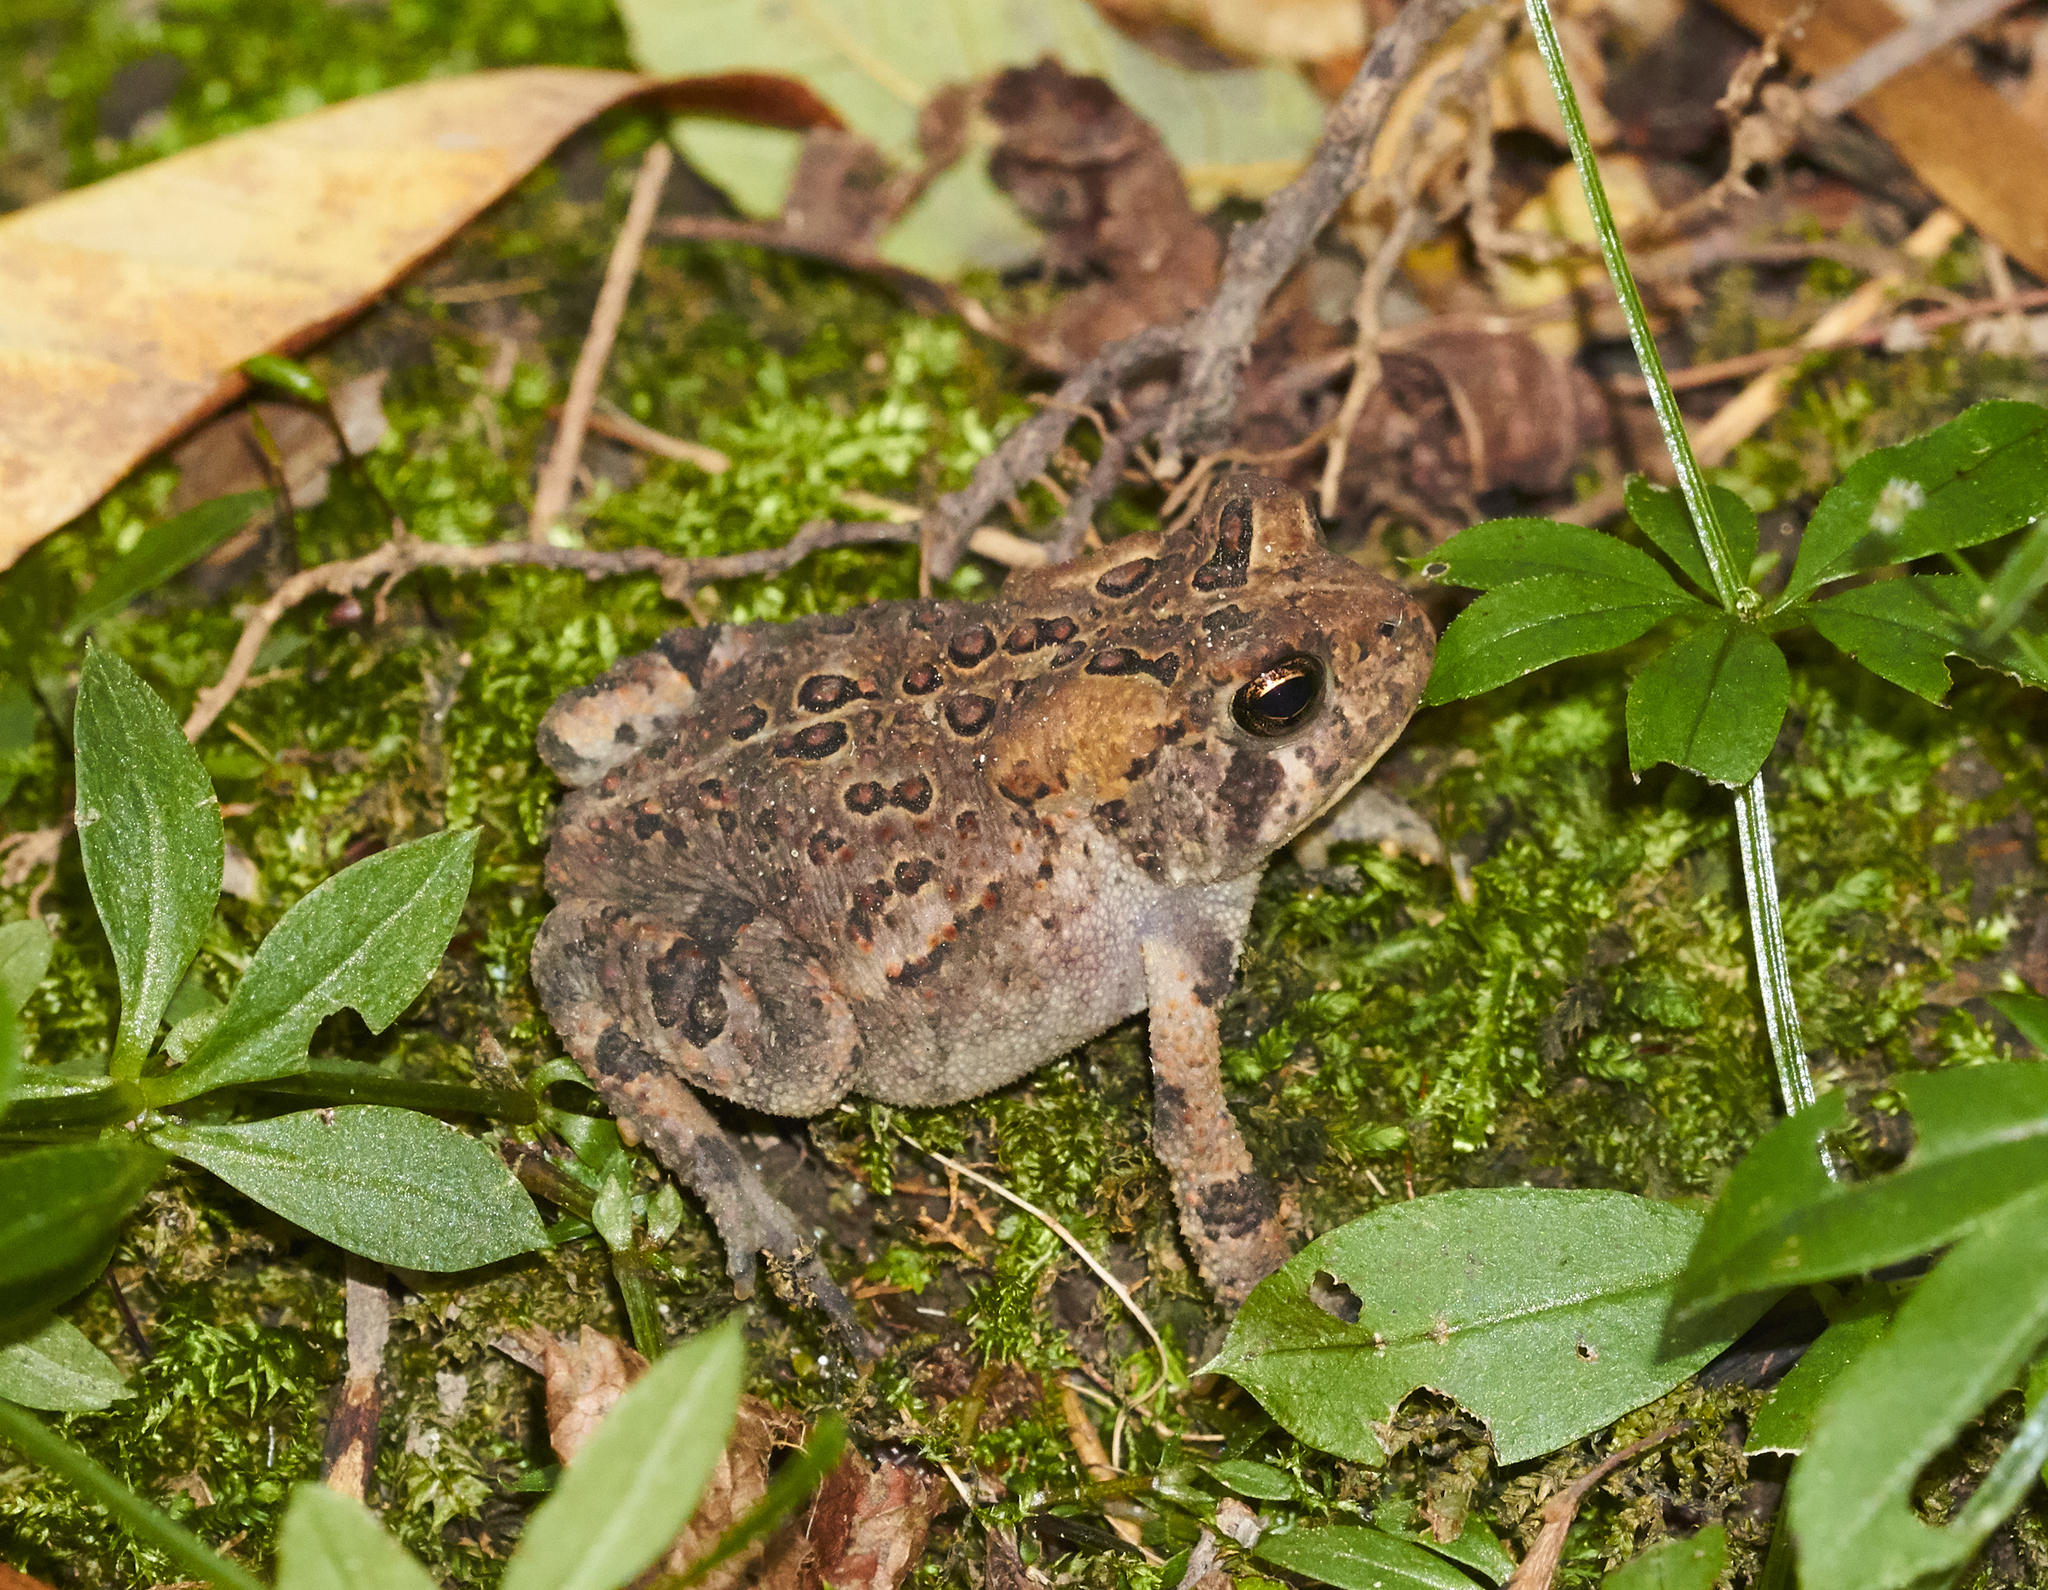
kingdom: Animalia
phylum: Chordata
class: Amphibia
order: Anura
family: Bufonidae
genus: Anaxyrus
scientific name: Anaxyrus americanus
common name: American toad
